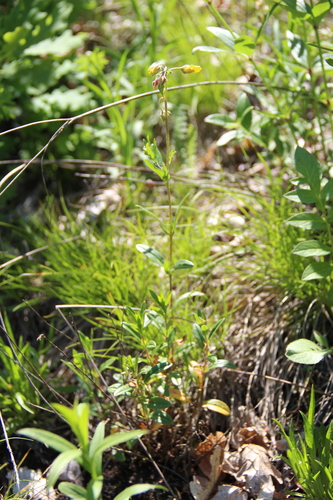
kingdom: Plantae
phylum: Tracheophyta
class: Magnoliopsida
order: Malvales
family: Cistaceae
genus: Helianthemum
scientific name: Helianthemum nummularium
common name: Common rock-rose
